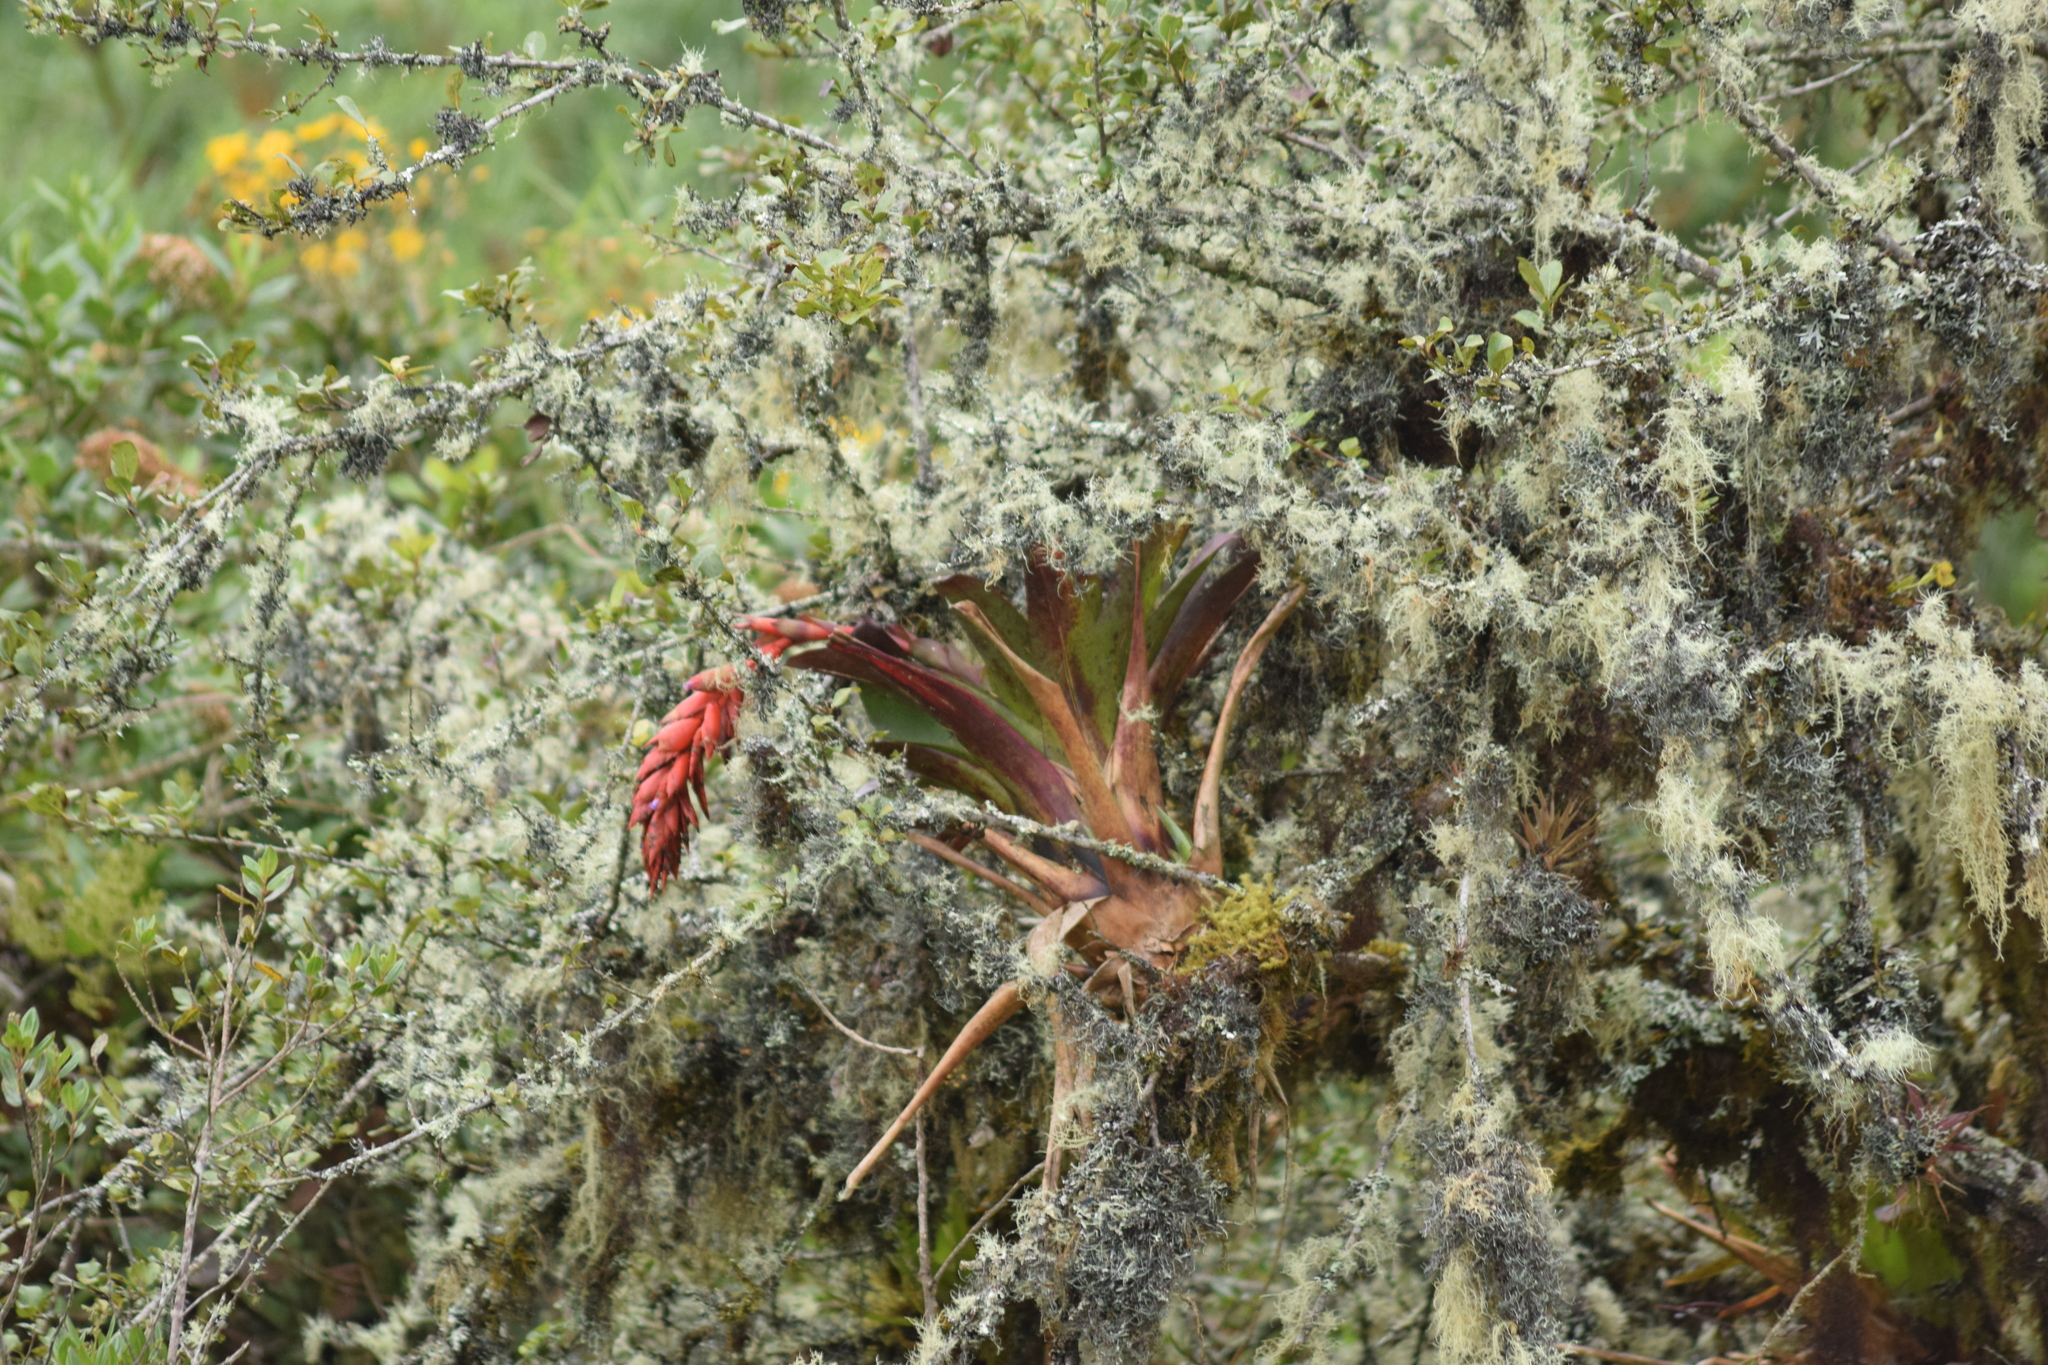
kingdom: Plantae
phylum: Tracheophyta
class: Liliopsida
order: Poales
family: Bromeliaceae
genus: Tillandsia
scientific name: Tillandsia compacta
